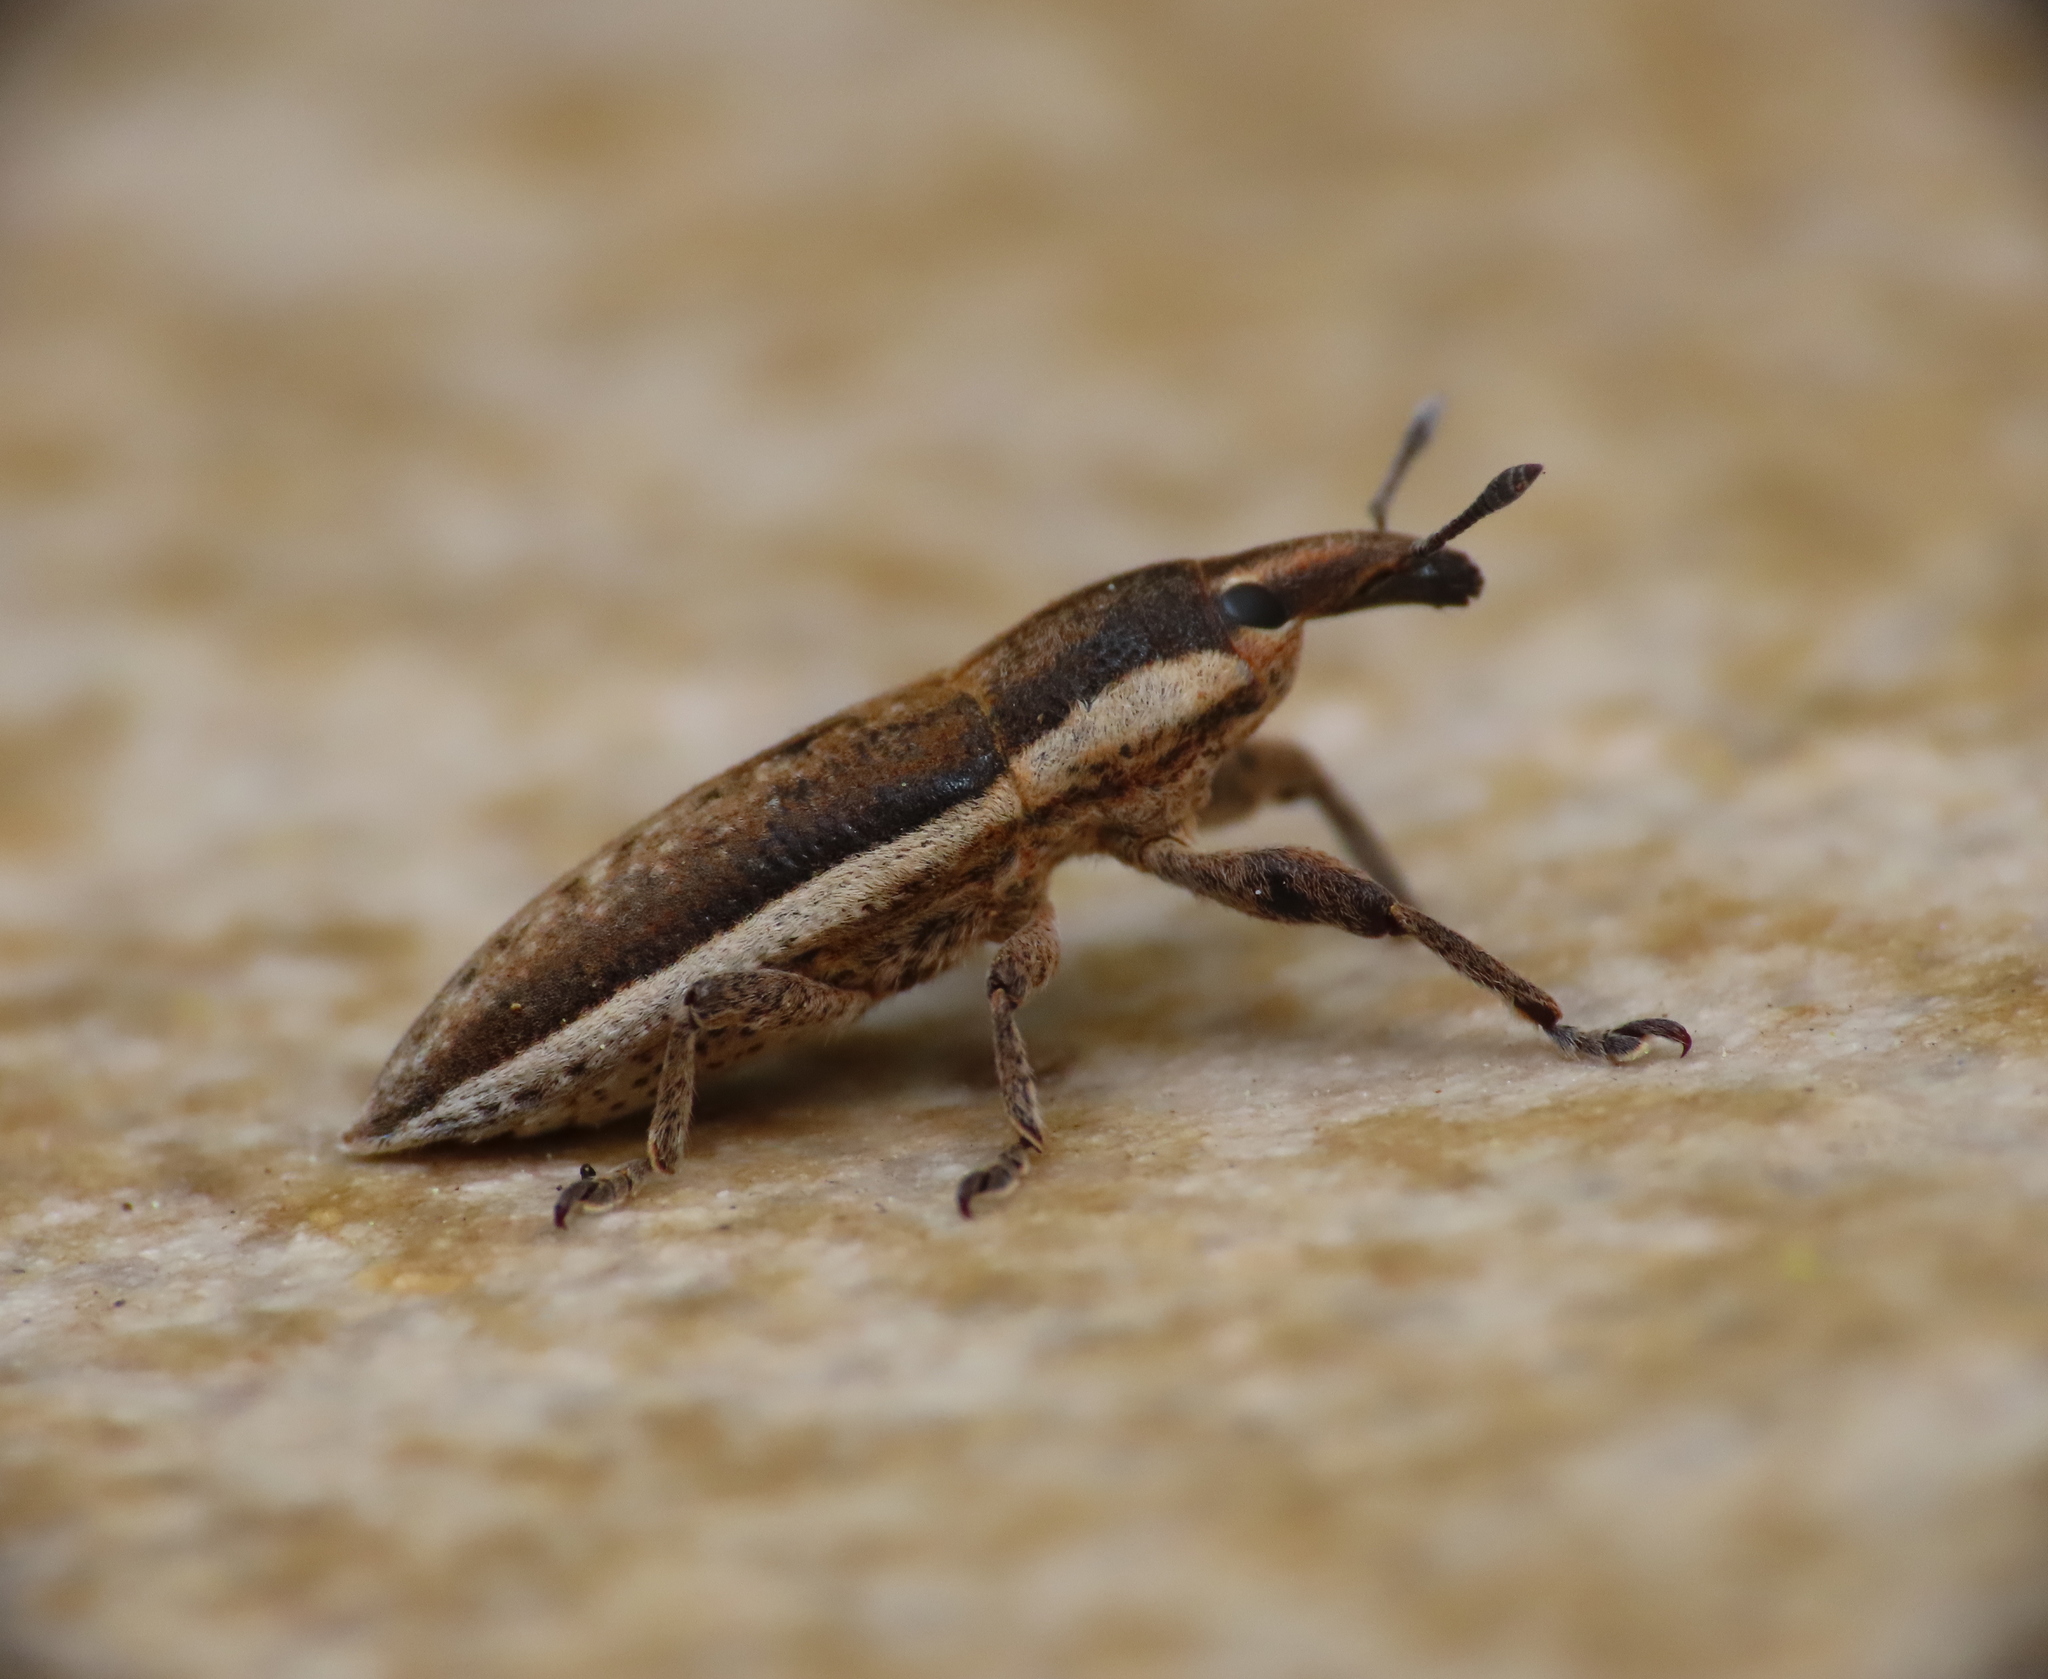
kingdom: Animalia
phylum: Arthropoda
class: Insecta
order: Coleoptera
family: Curculionidae
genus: Lixus
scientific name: Lixus albomarginatus
